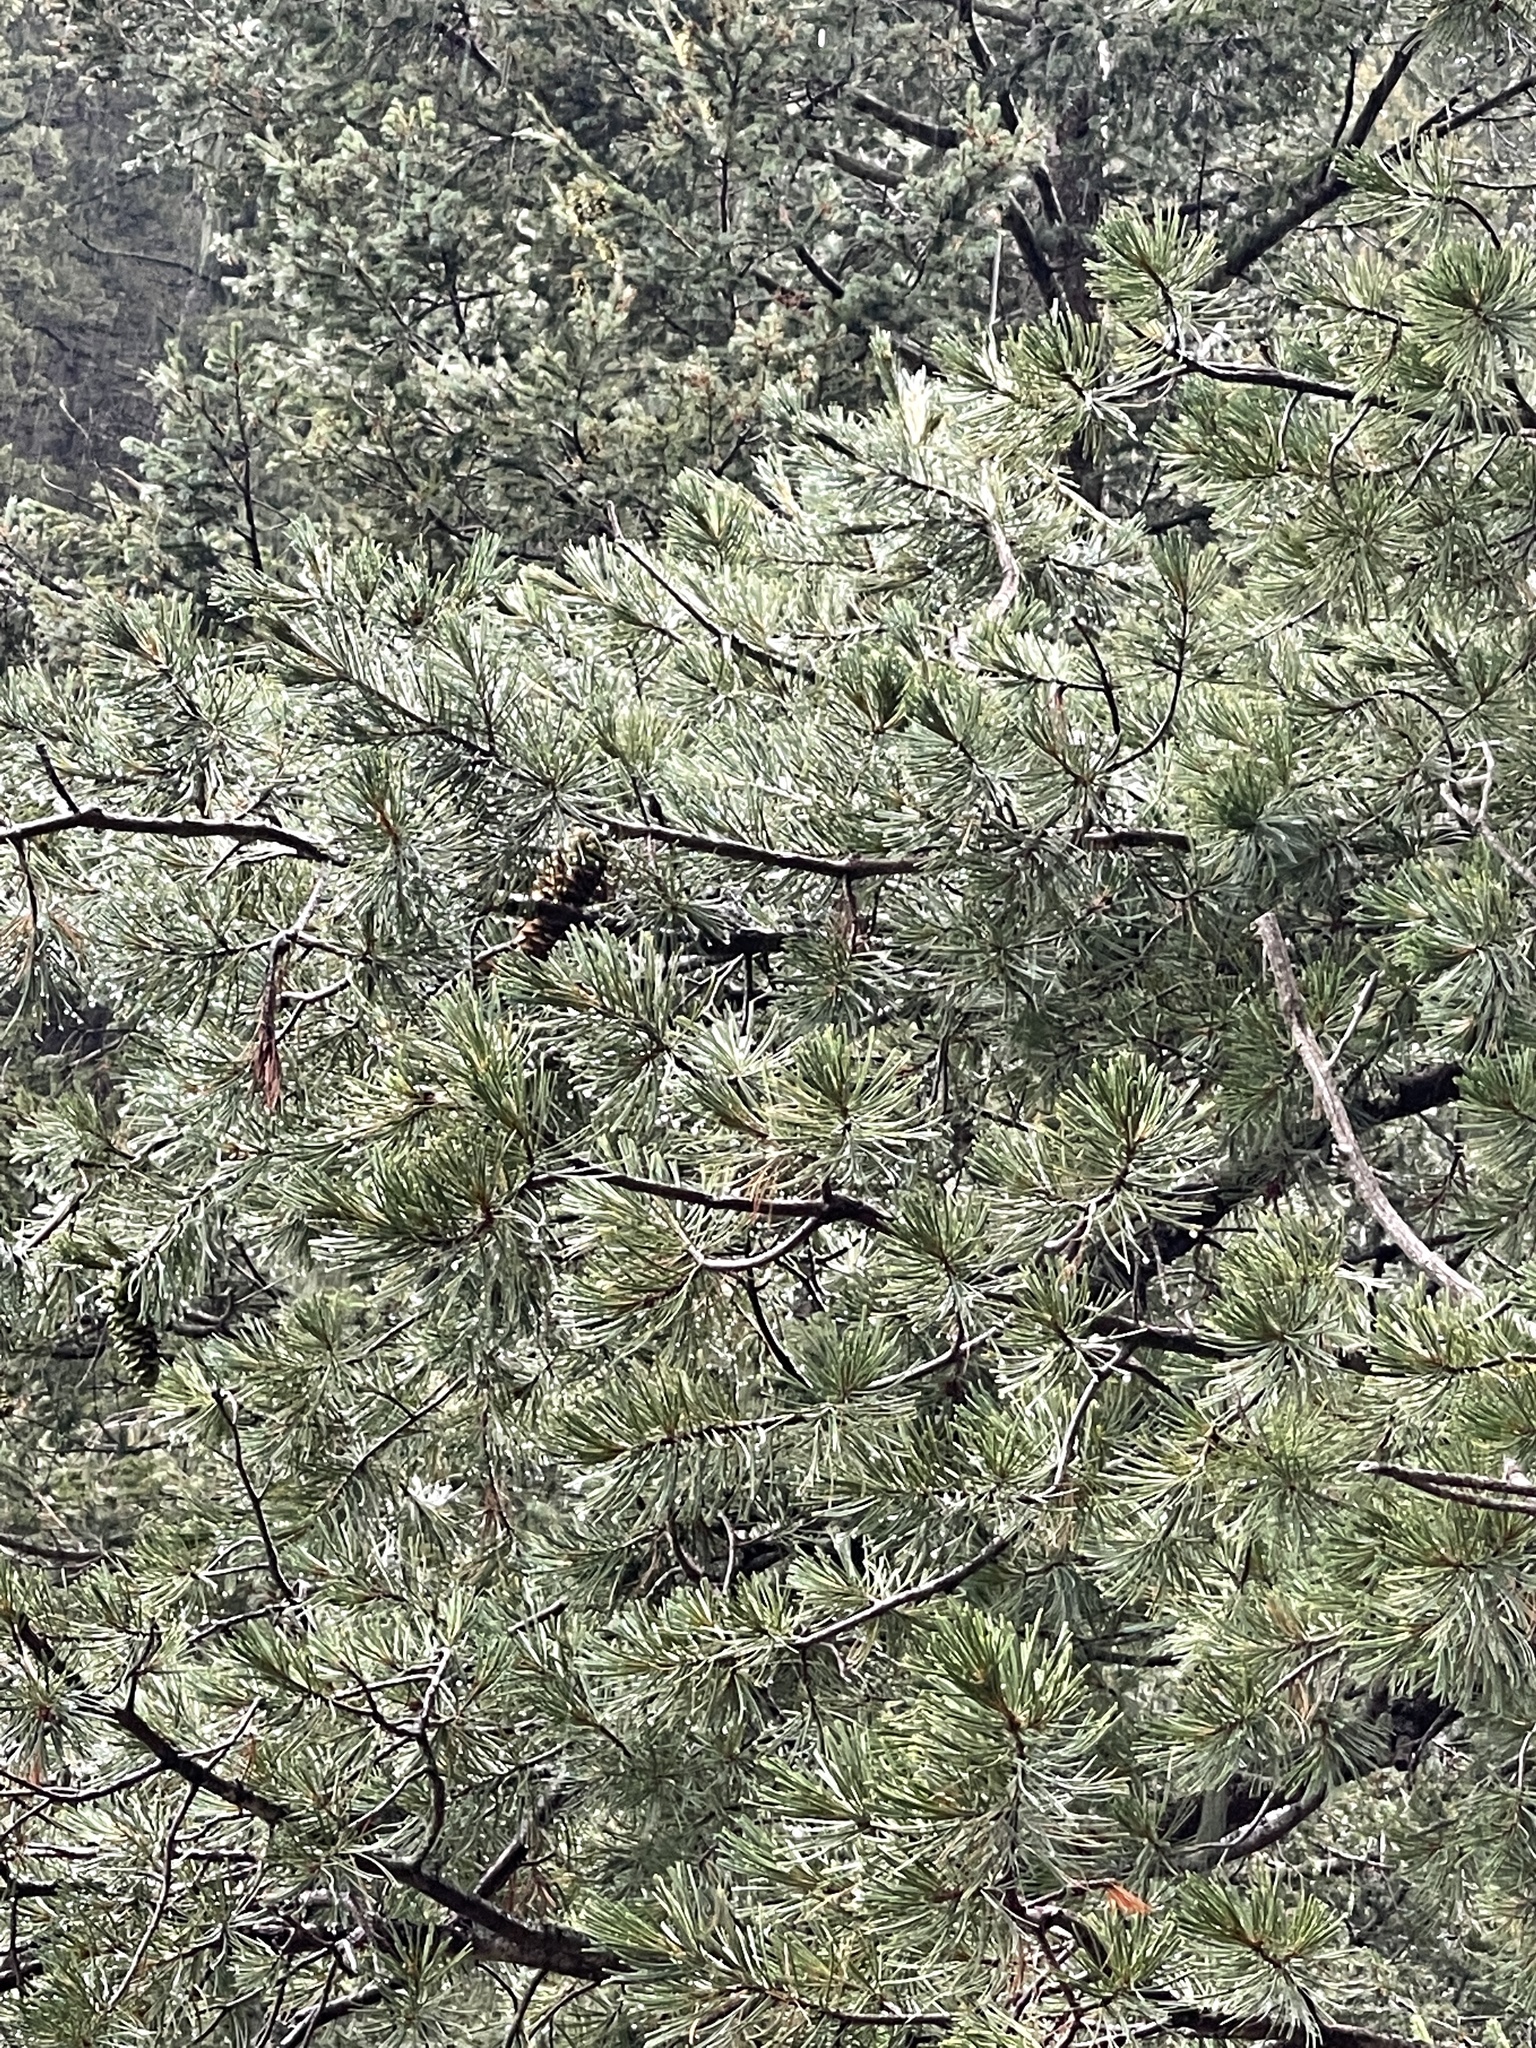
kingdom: Plantae
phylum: Tracheophyta
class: Pinopsida
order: Pinales
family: Pinaceae
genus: Pinus
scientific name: Pinus strobiformis
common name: Southwestern white pine
